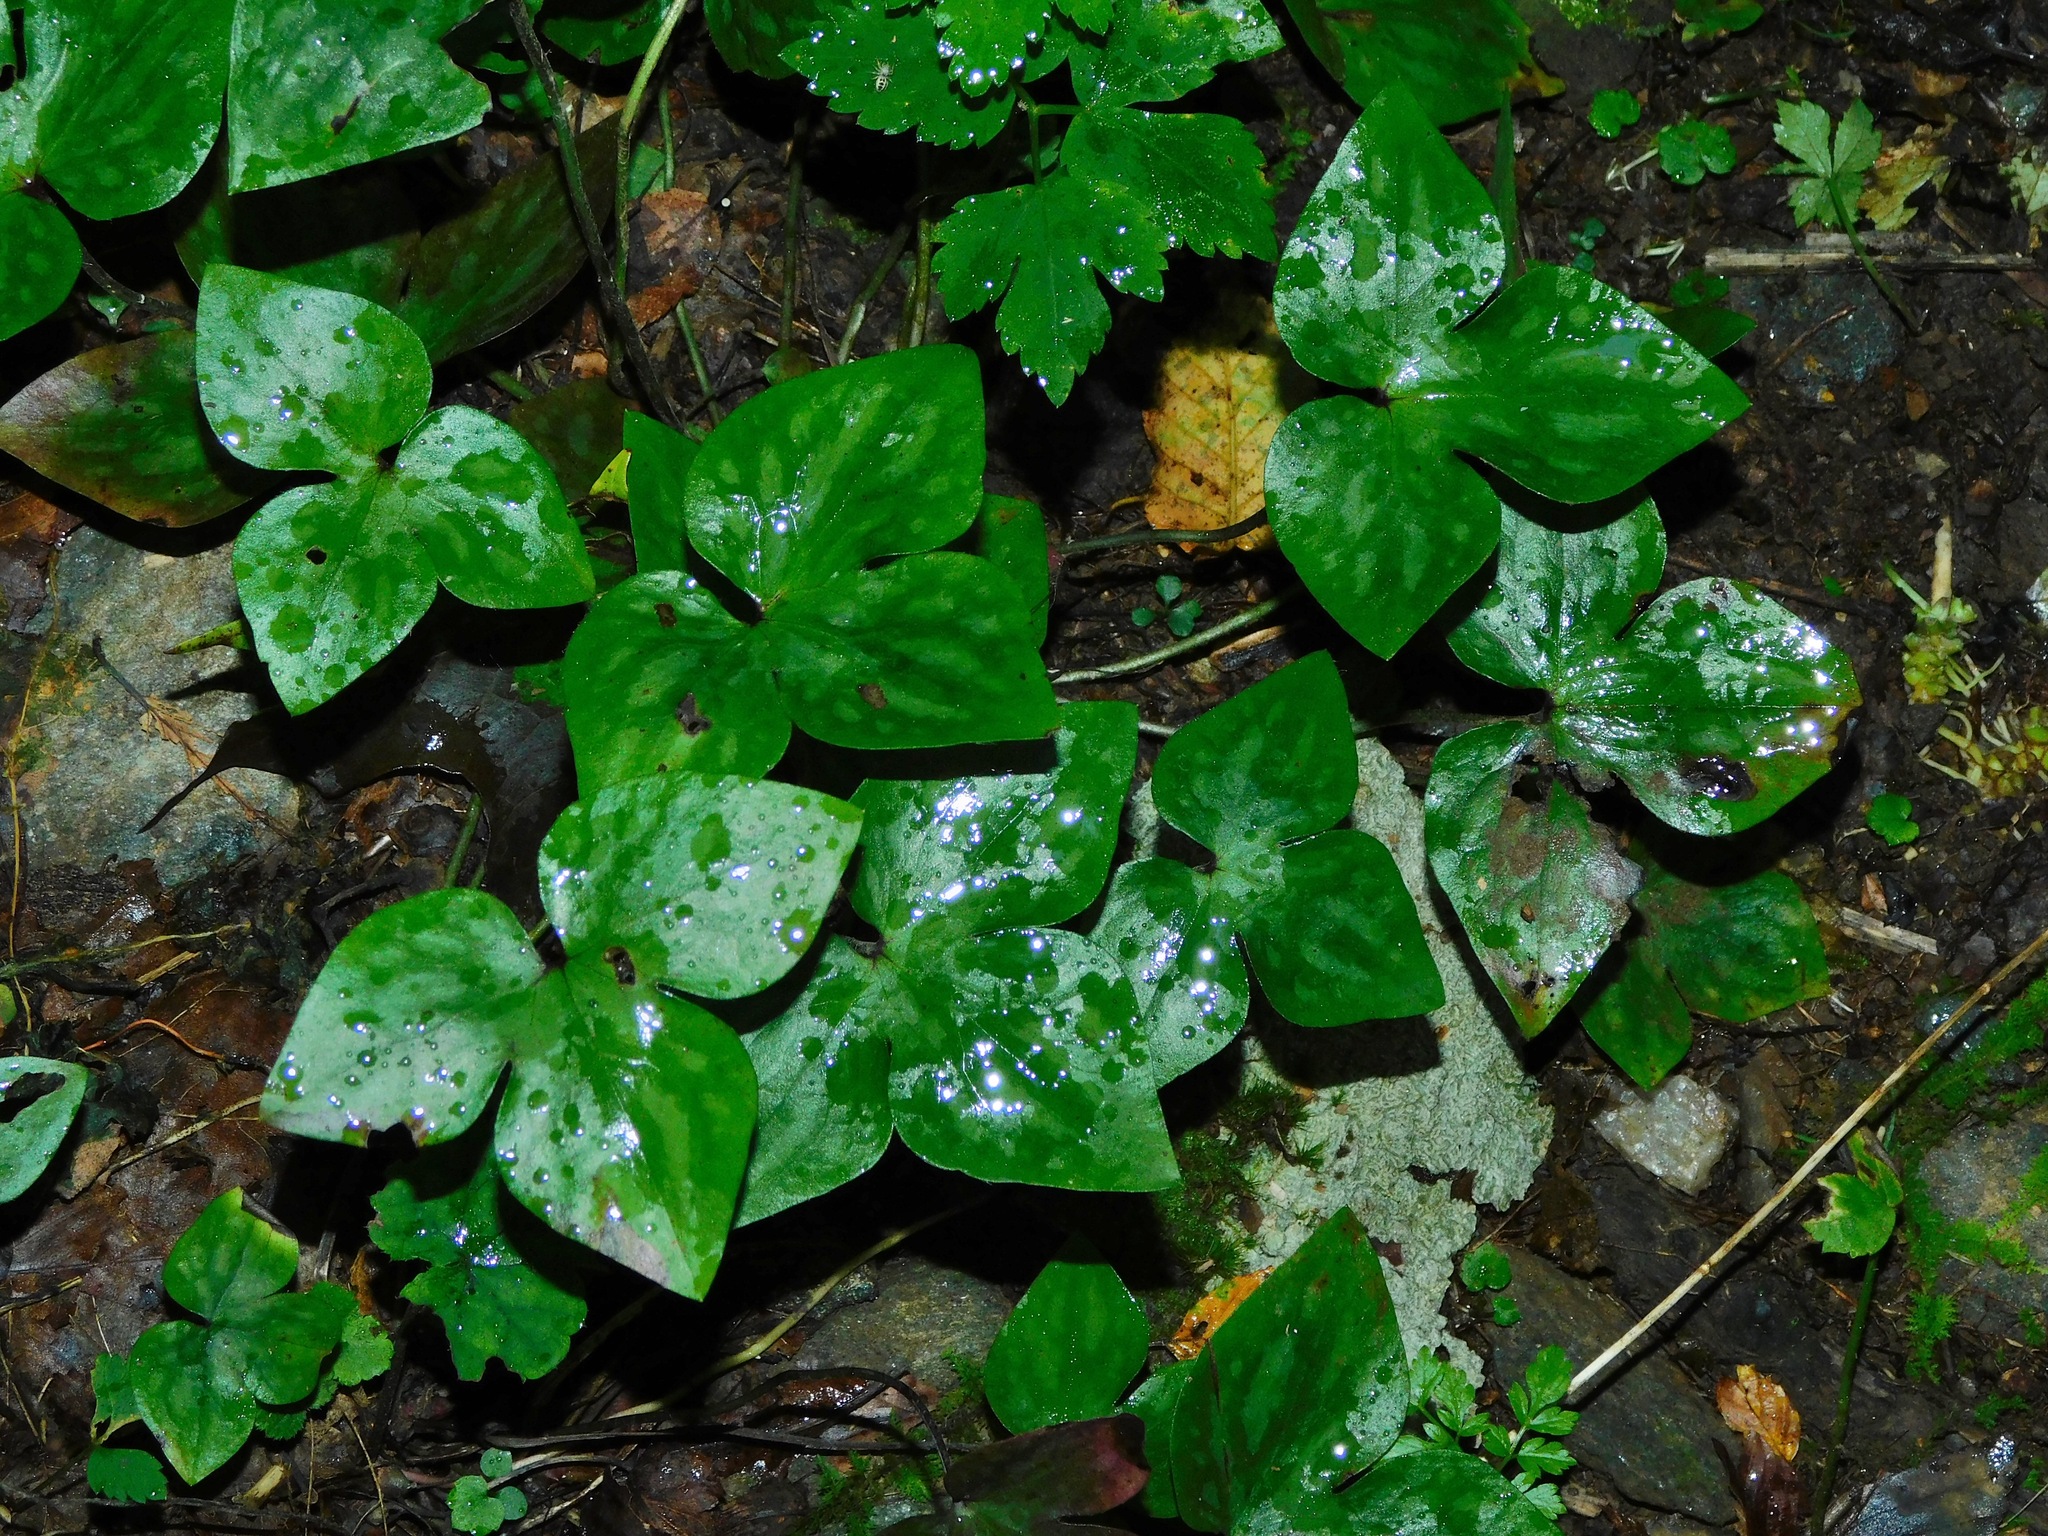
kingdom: Plantae
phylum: Tracheophyta
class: Magnoliopsida
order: Ranunculales
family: Ranunculaceae
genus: Hepatica
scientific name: Hepatica acutiloba
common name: Sharp-lobed hepatica
